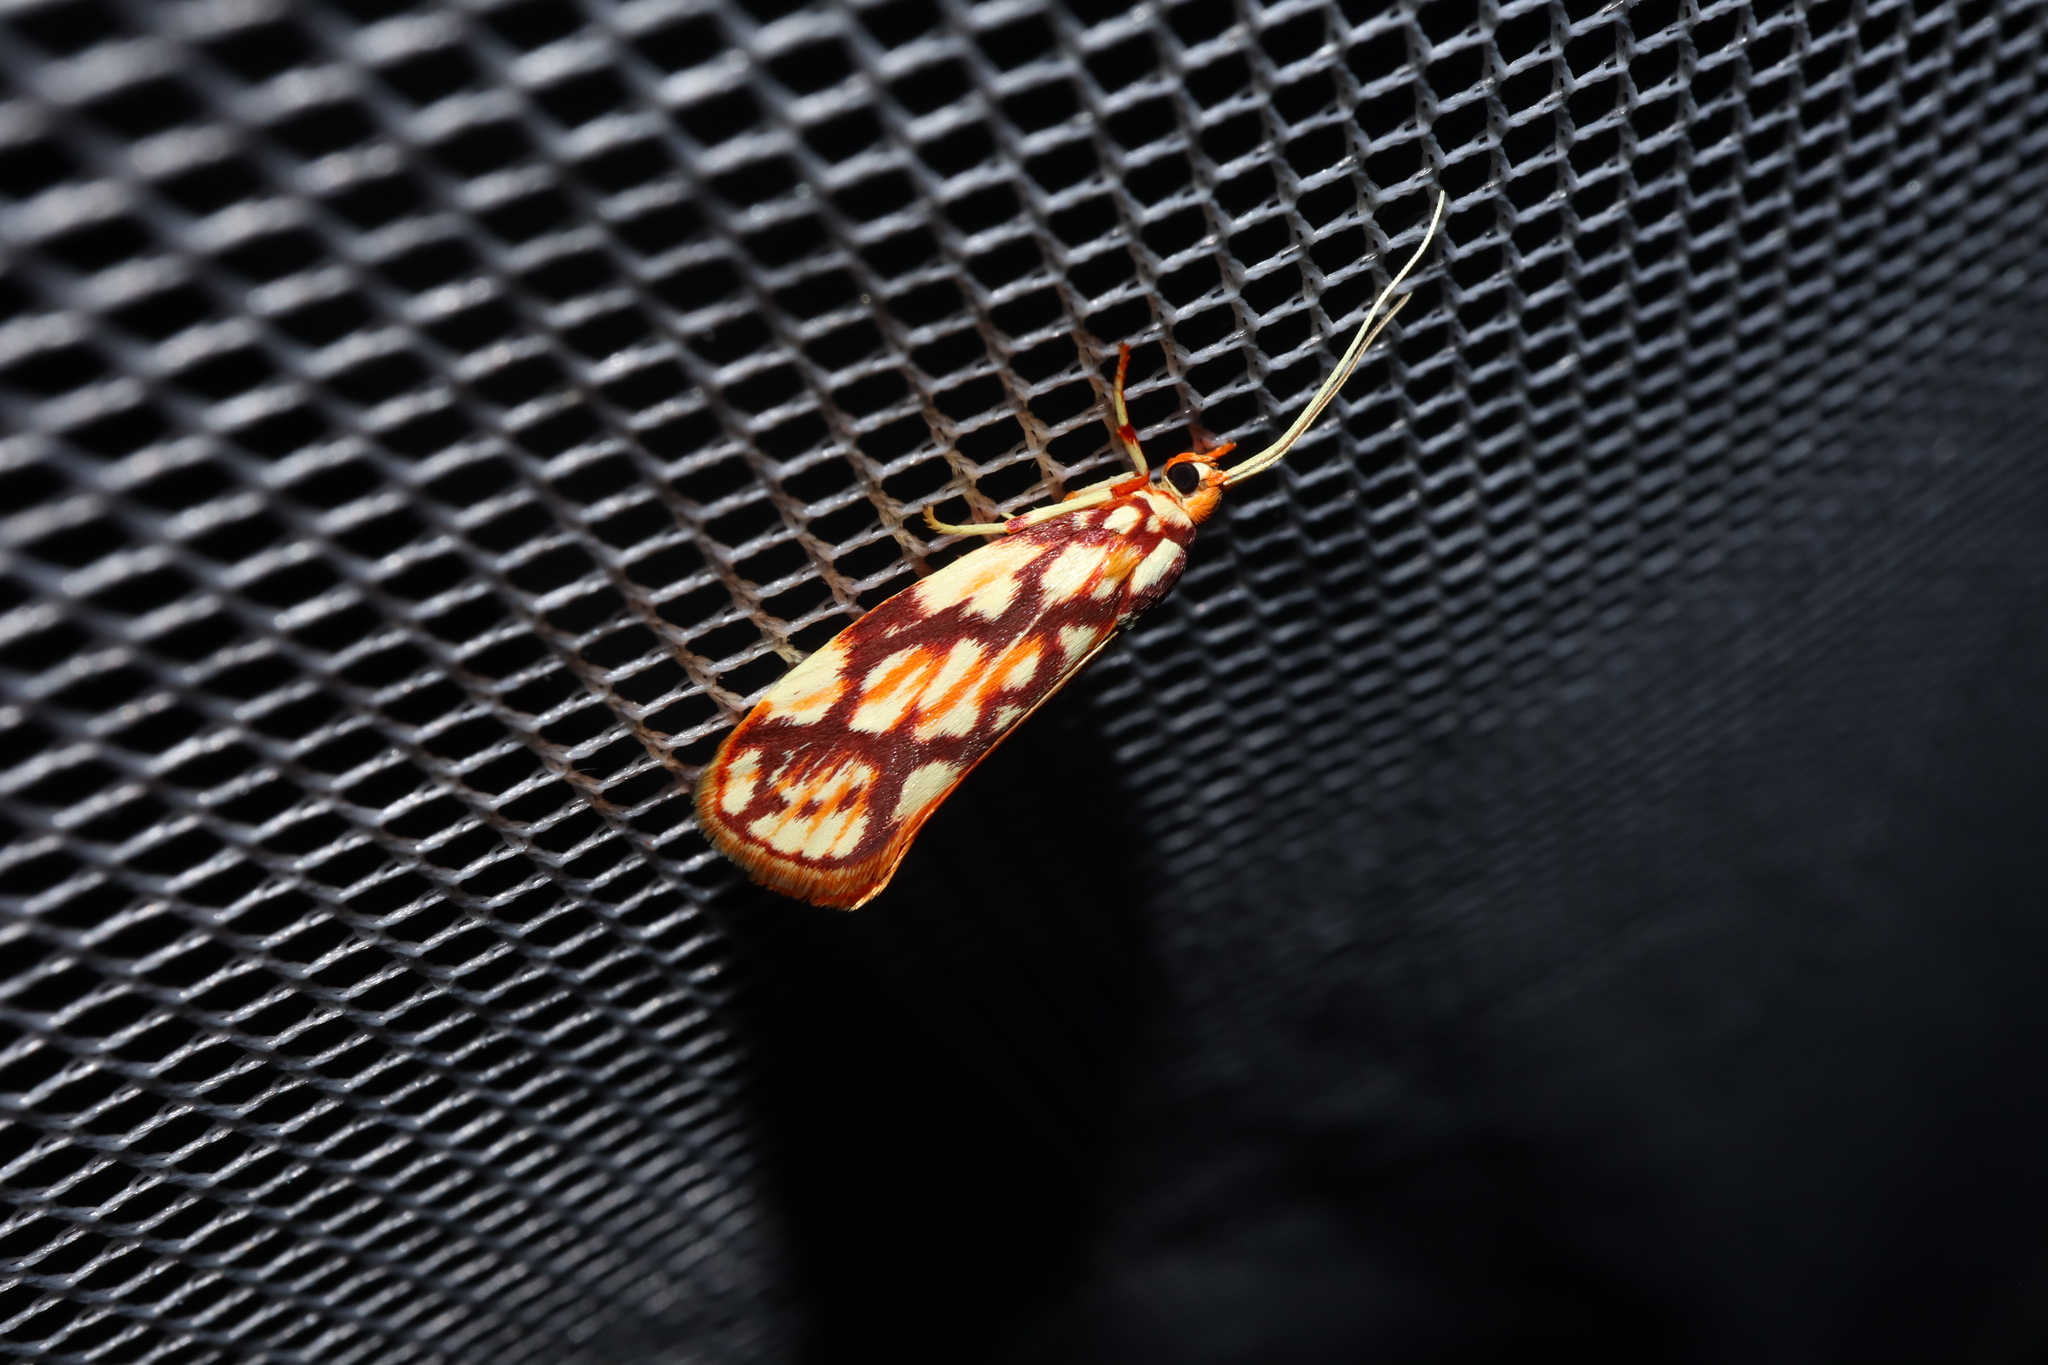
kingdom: Animalia
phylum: Arthropoda
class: Insecta
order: Lepidoptera
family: Lacturidae
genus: Lactura
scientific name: Lactura panopsia
